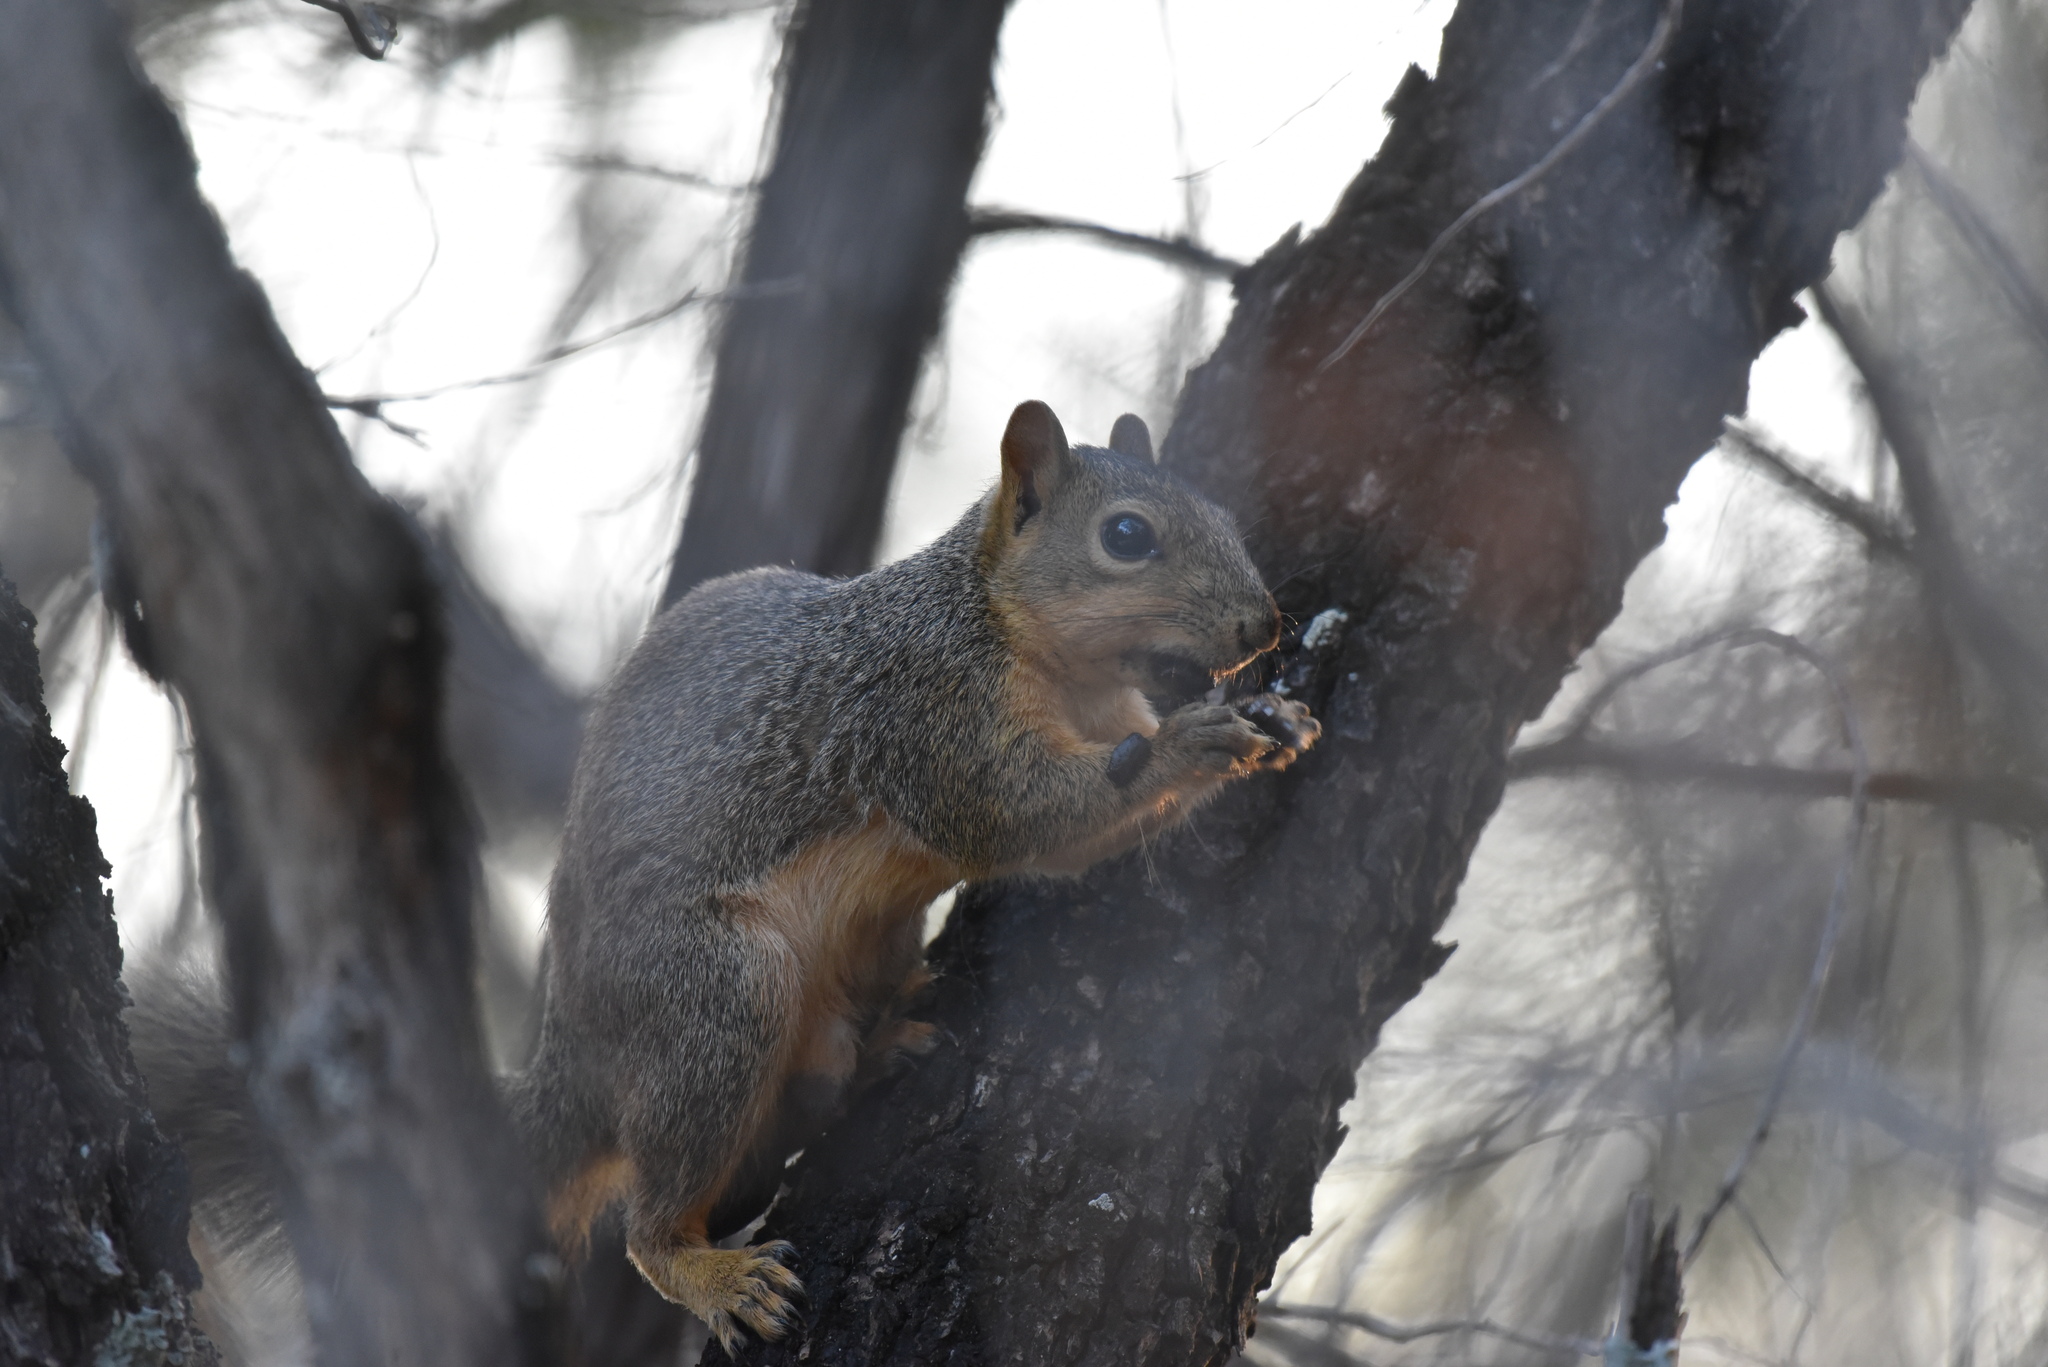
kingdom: Animalia
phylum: Chordata
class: Mammalia
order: Rodentia
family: Sciuridae
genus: Sciurus
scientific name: Sciurus niger
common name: Fox squirrel
